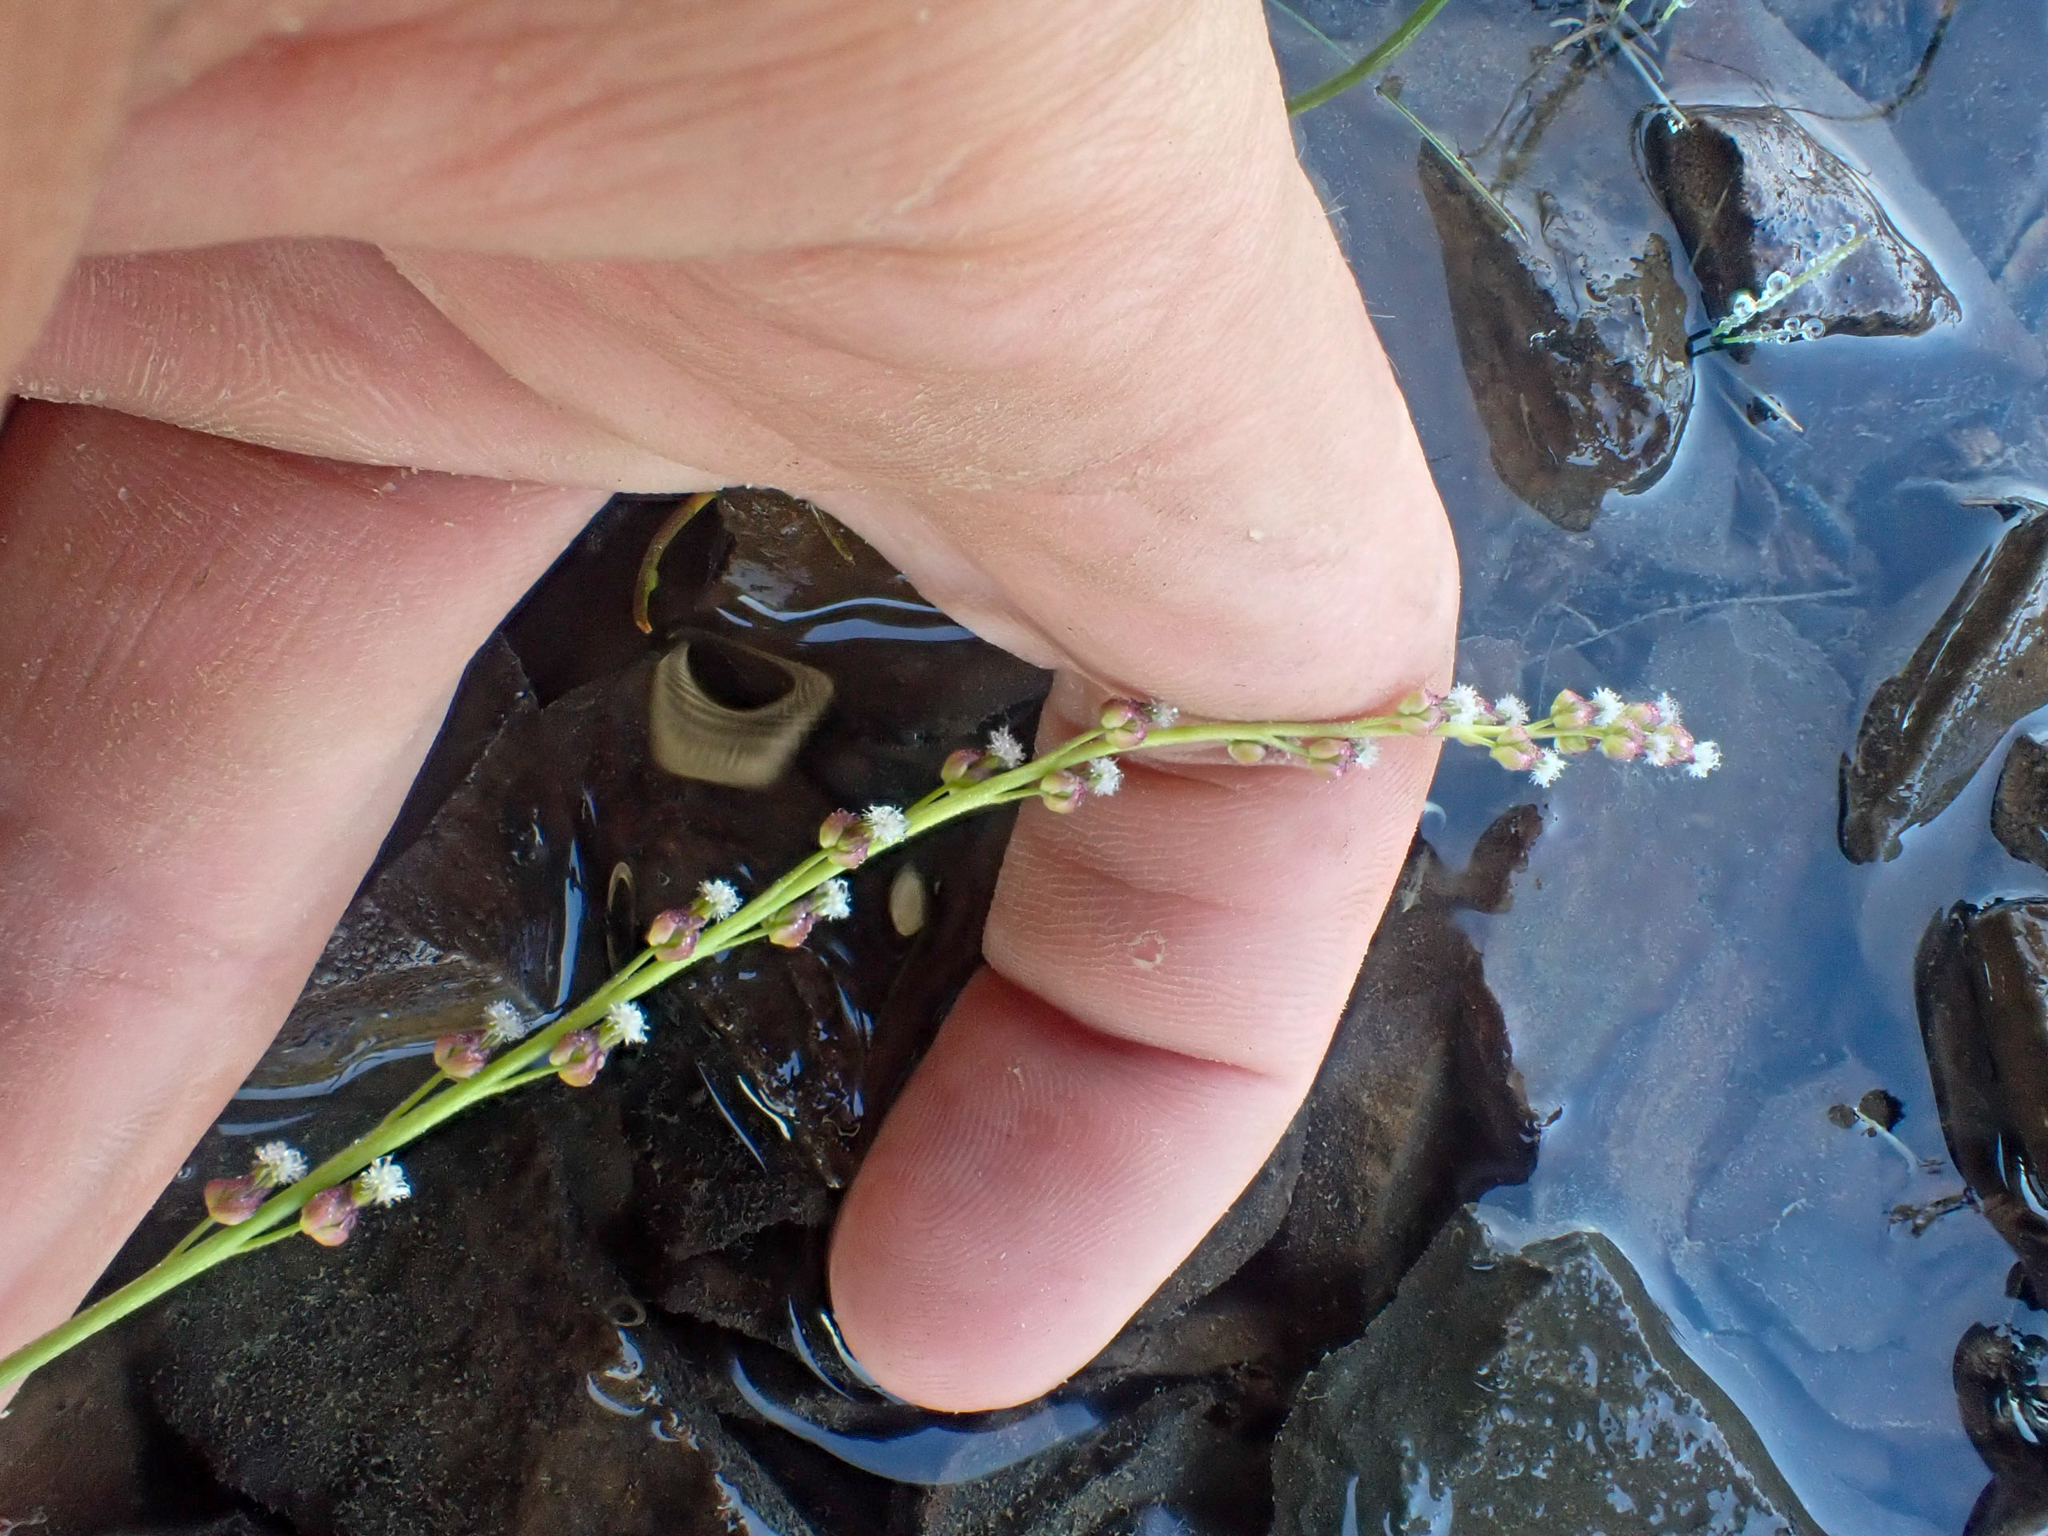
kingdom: Plantae
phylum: Tracheophyta
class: Liliopsida
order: Alismatales
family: Juncaginaceae
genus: Triglochin
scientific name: Triglochin palustris
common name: Marsh arrowgrass
